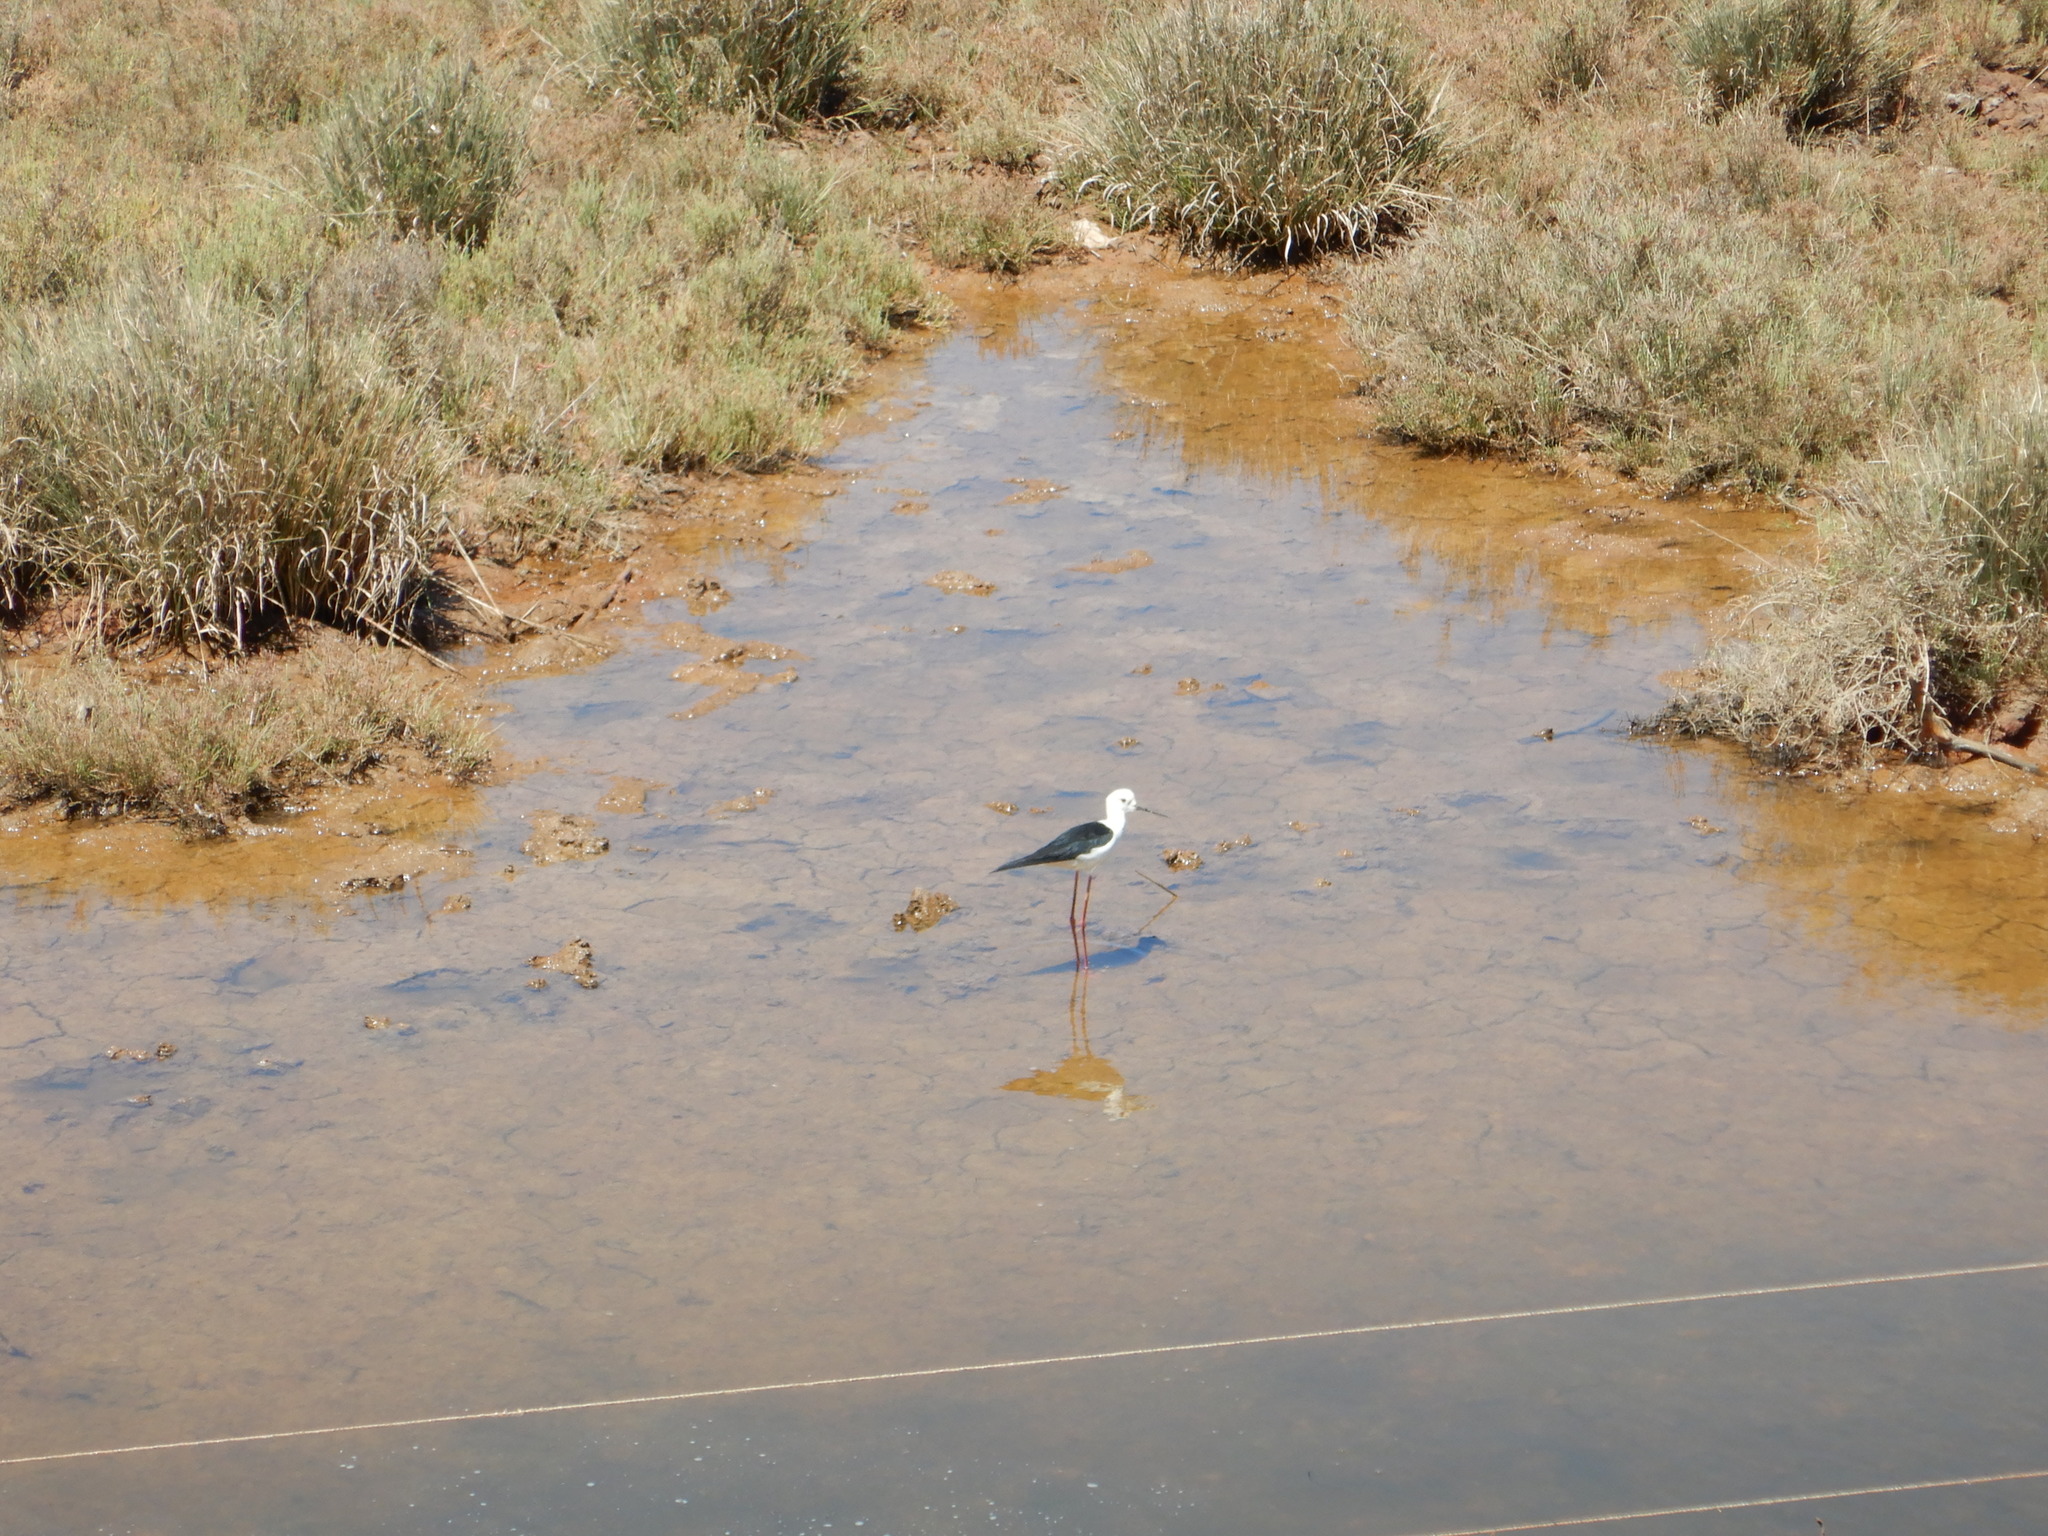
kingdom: Animalia
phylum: Chordata
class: Aves
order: Charadriiformes
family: Recurvirostridae
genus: Himantopus
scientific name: Himantopus himantopus
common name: Black-winged stilt
